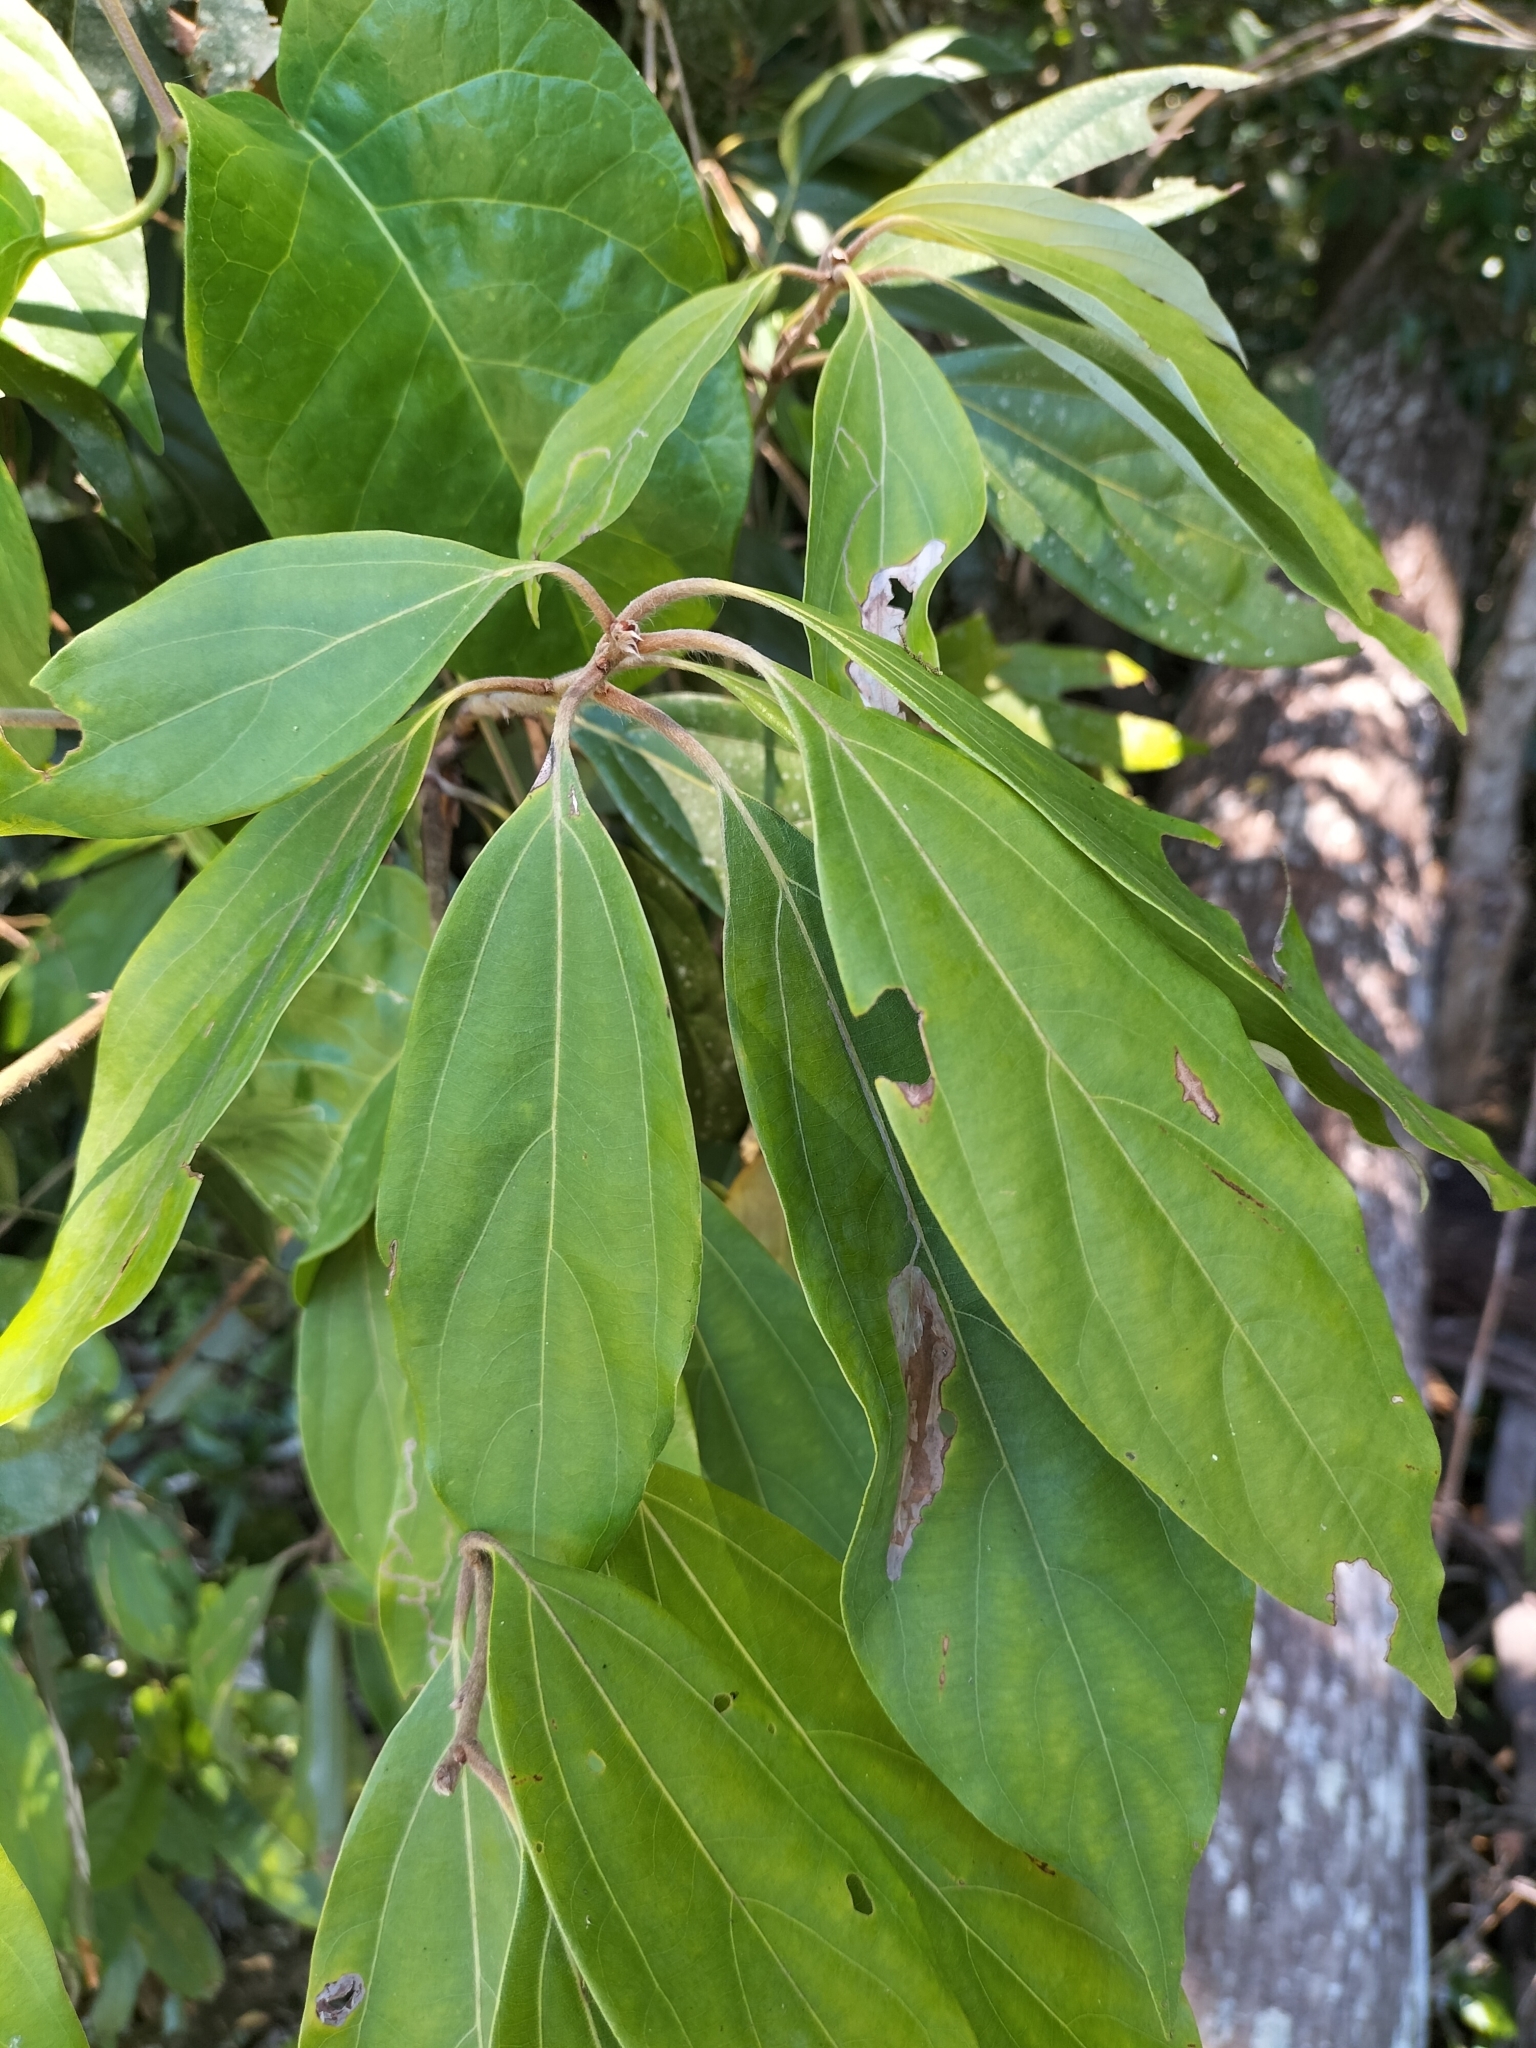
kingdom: Plantae
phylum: Tracheophyta
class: Magnoliopsida
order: Laurales
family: Lauraceae
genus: Neolitsea
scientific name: Neolitsea dealbata
